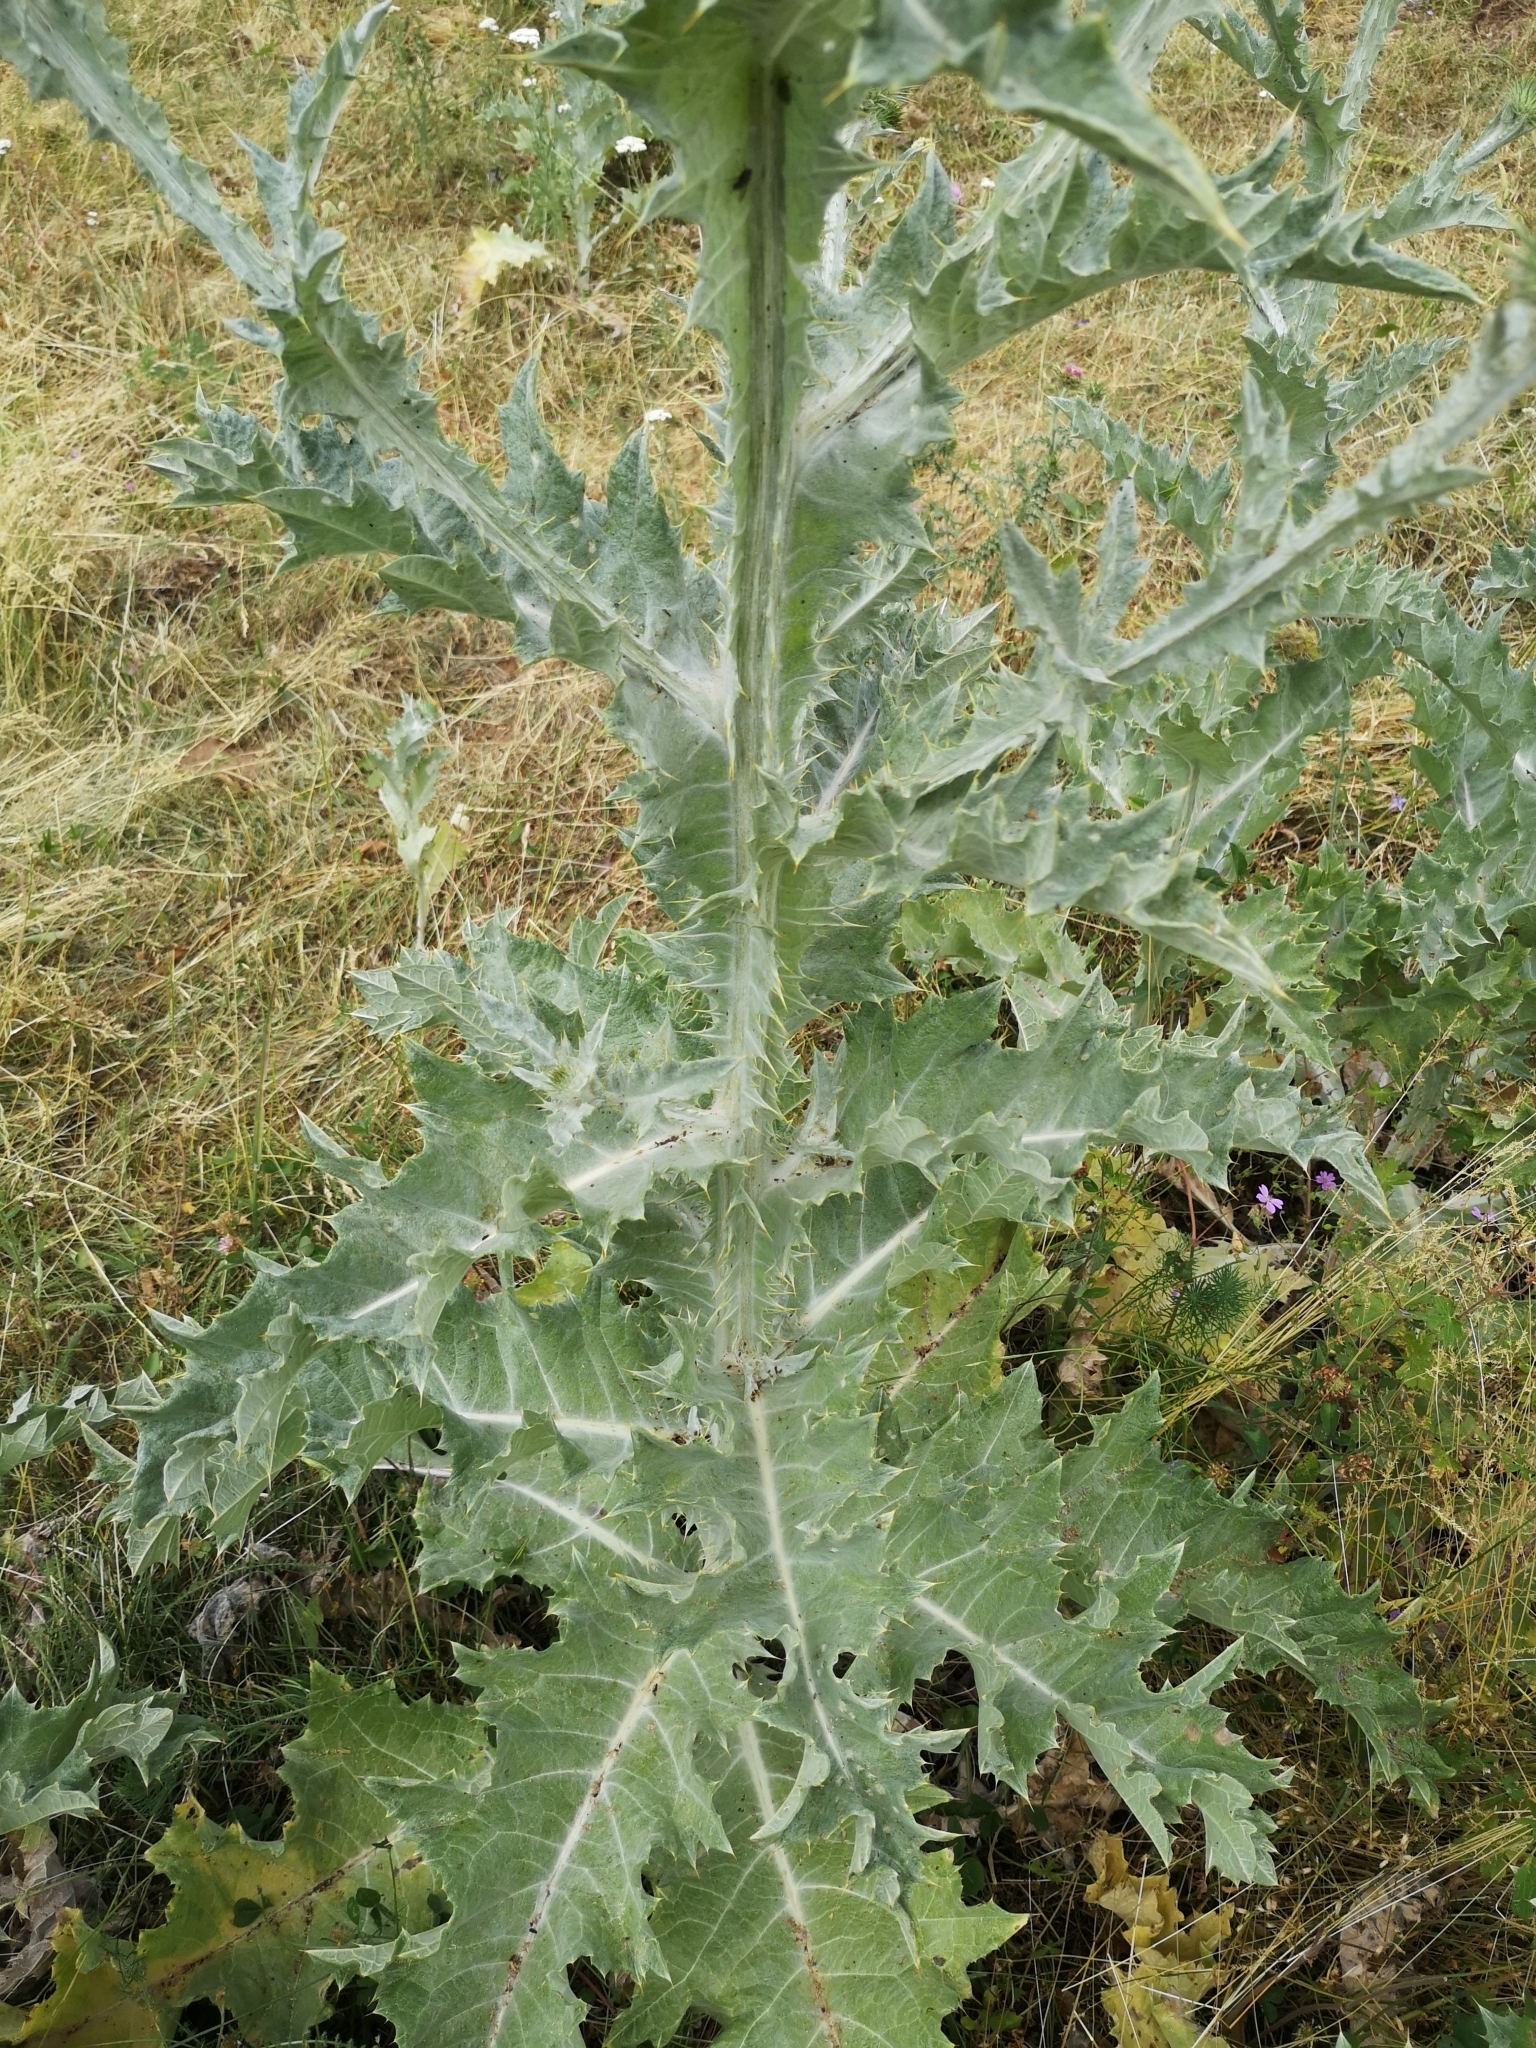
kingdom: Plantae
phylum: Tracheophyta
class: Magnoliopsida
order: Asterales
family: Asteraceae
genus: Onopordum
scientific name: Onopordum acanthium
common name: Scotch thistle
